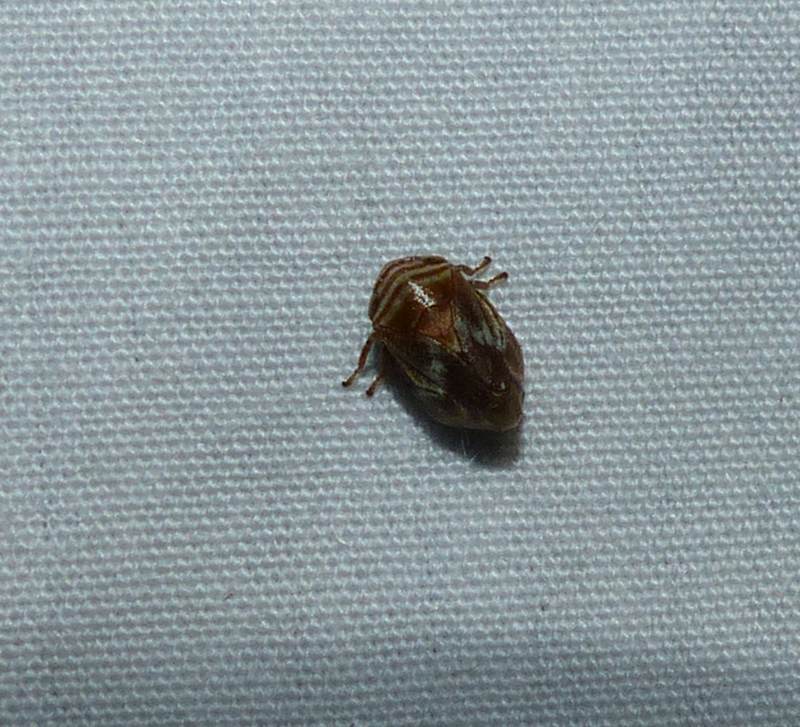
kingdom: Animalia
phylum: Arthropoda
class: Insecta
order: Hemiptera
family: Clastopteridae
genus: Clastoptera
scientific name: Clastoptera obtusa
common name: Alder spittlebug
